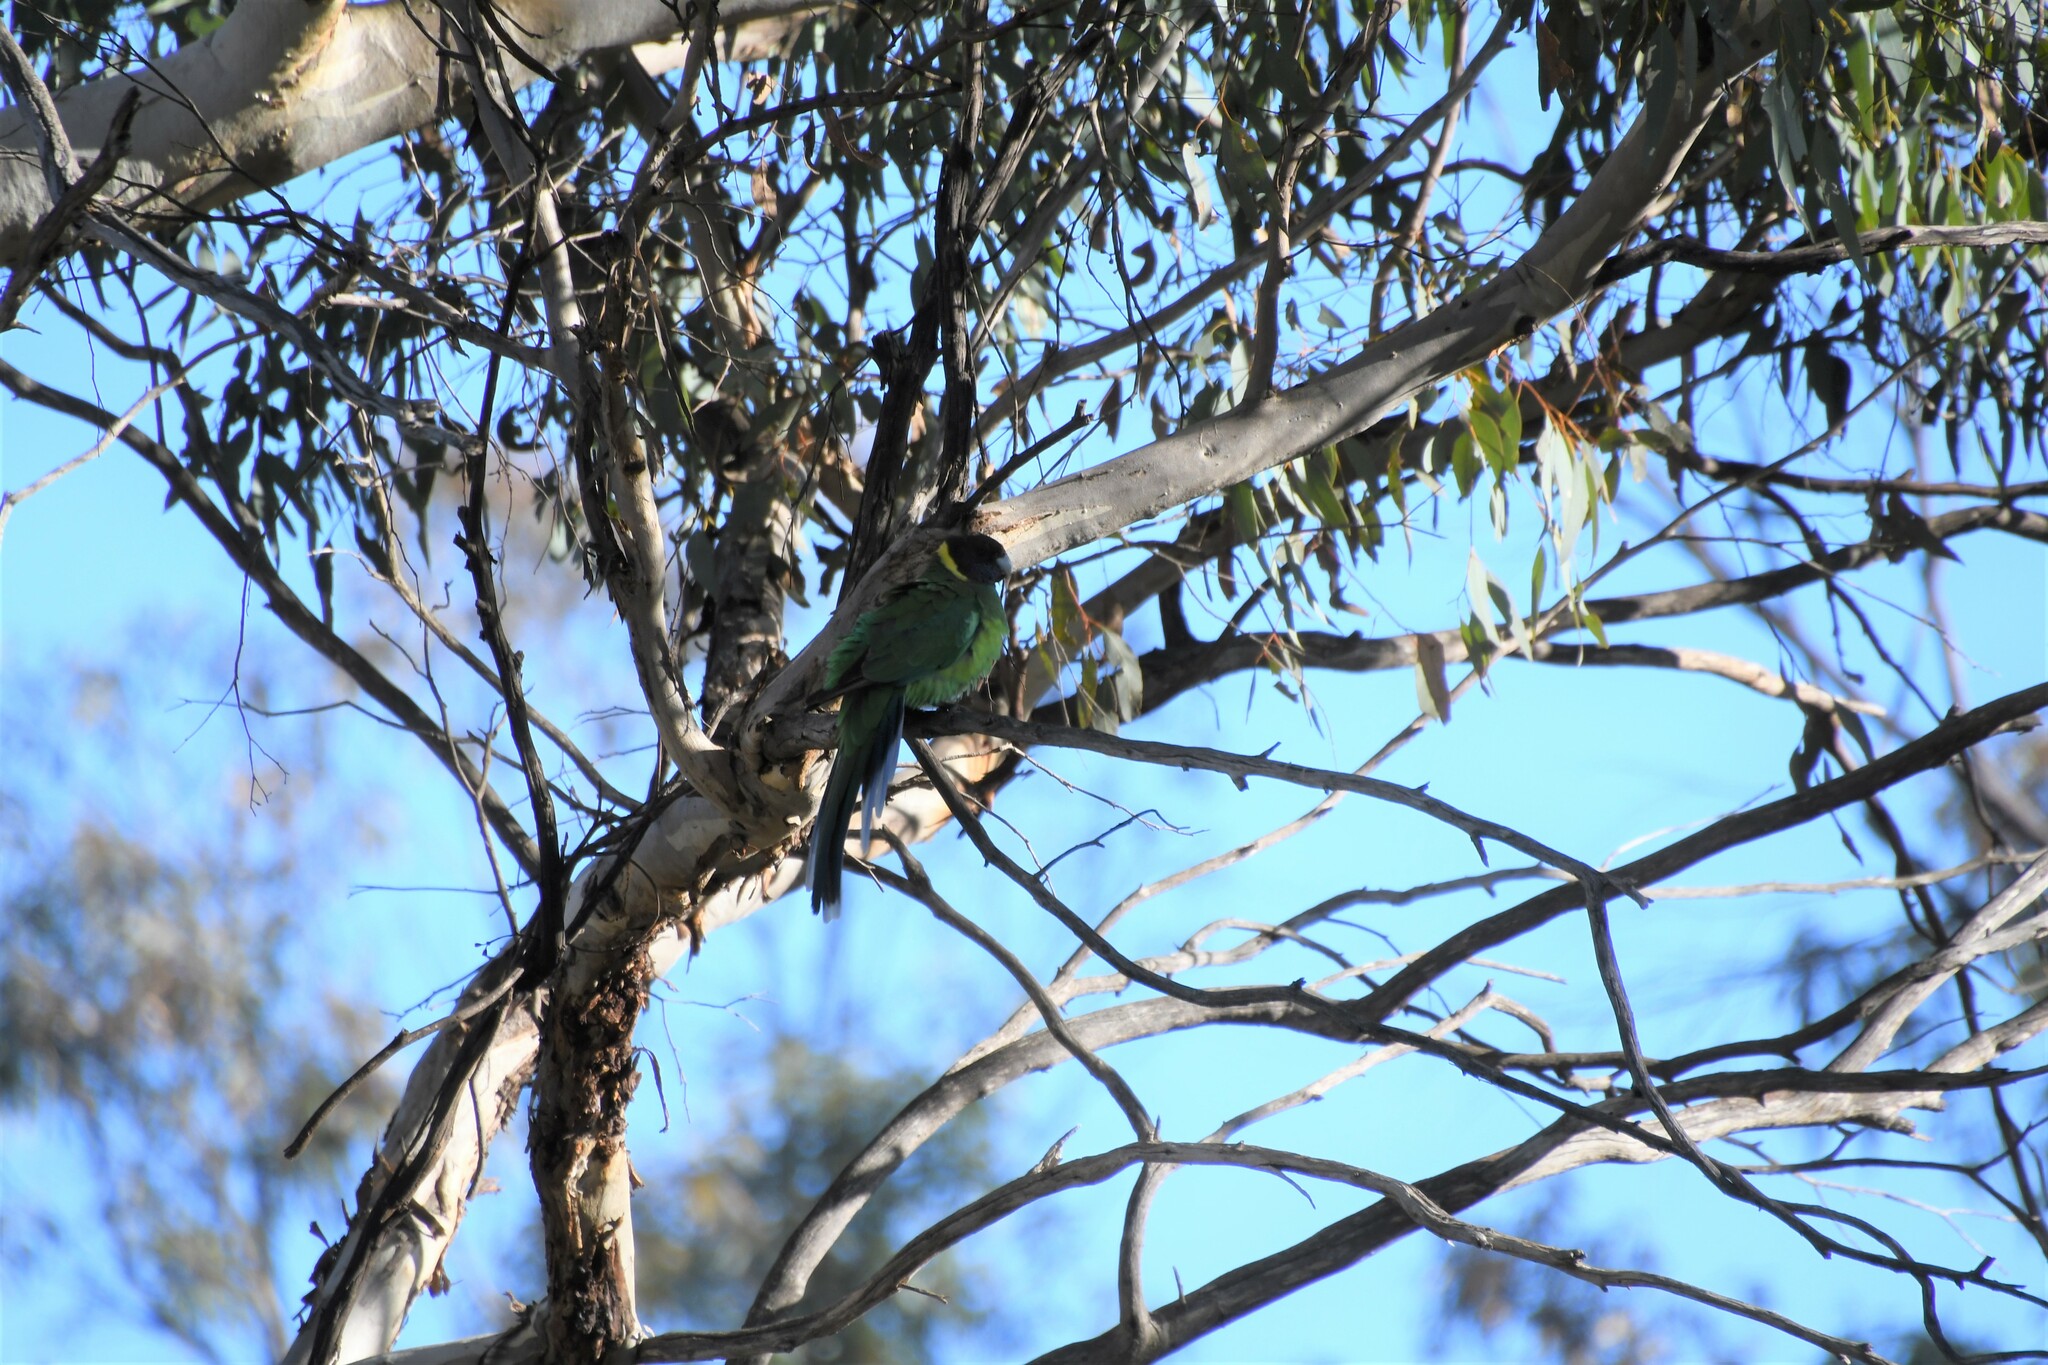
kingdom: Animalia
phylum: Chordata
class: Aves
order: Psittaciformes
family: Psittacidae
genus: Barnardius
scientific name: Barnardius zonarius
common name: Australian ringneck
